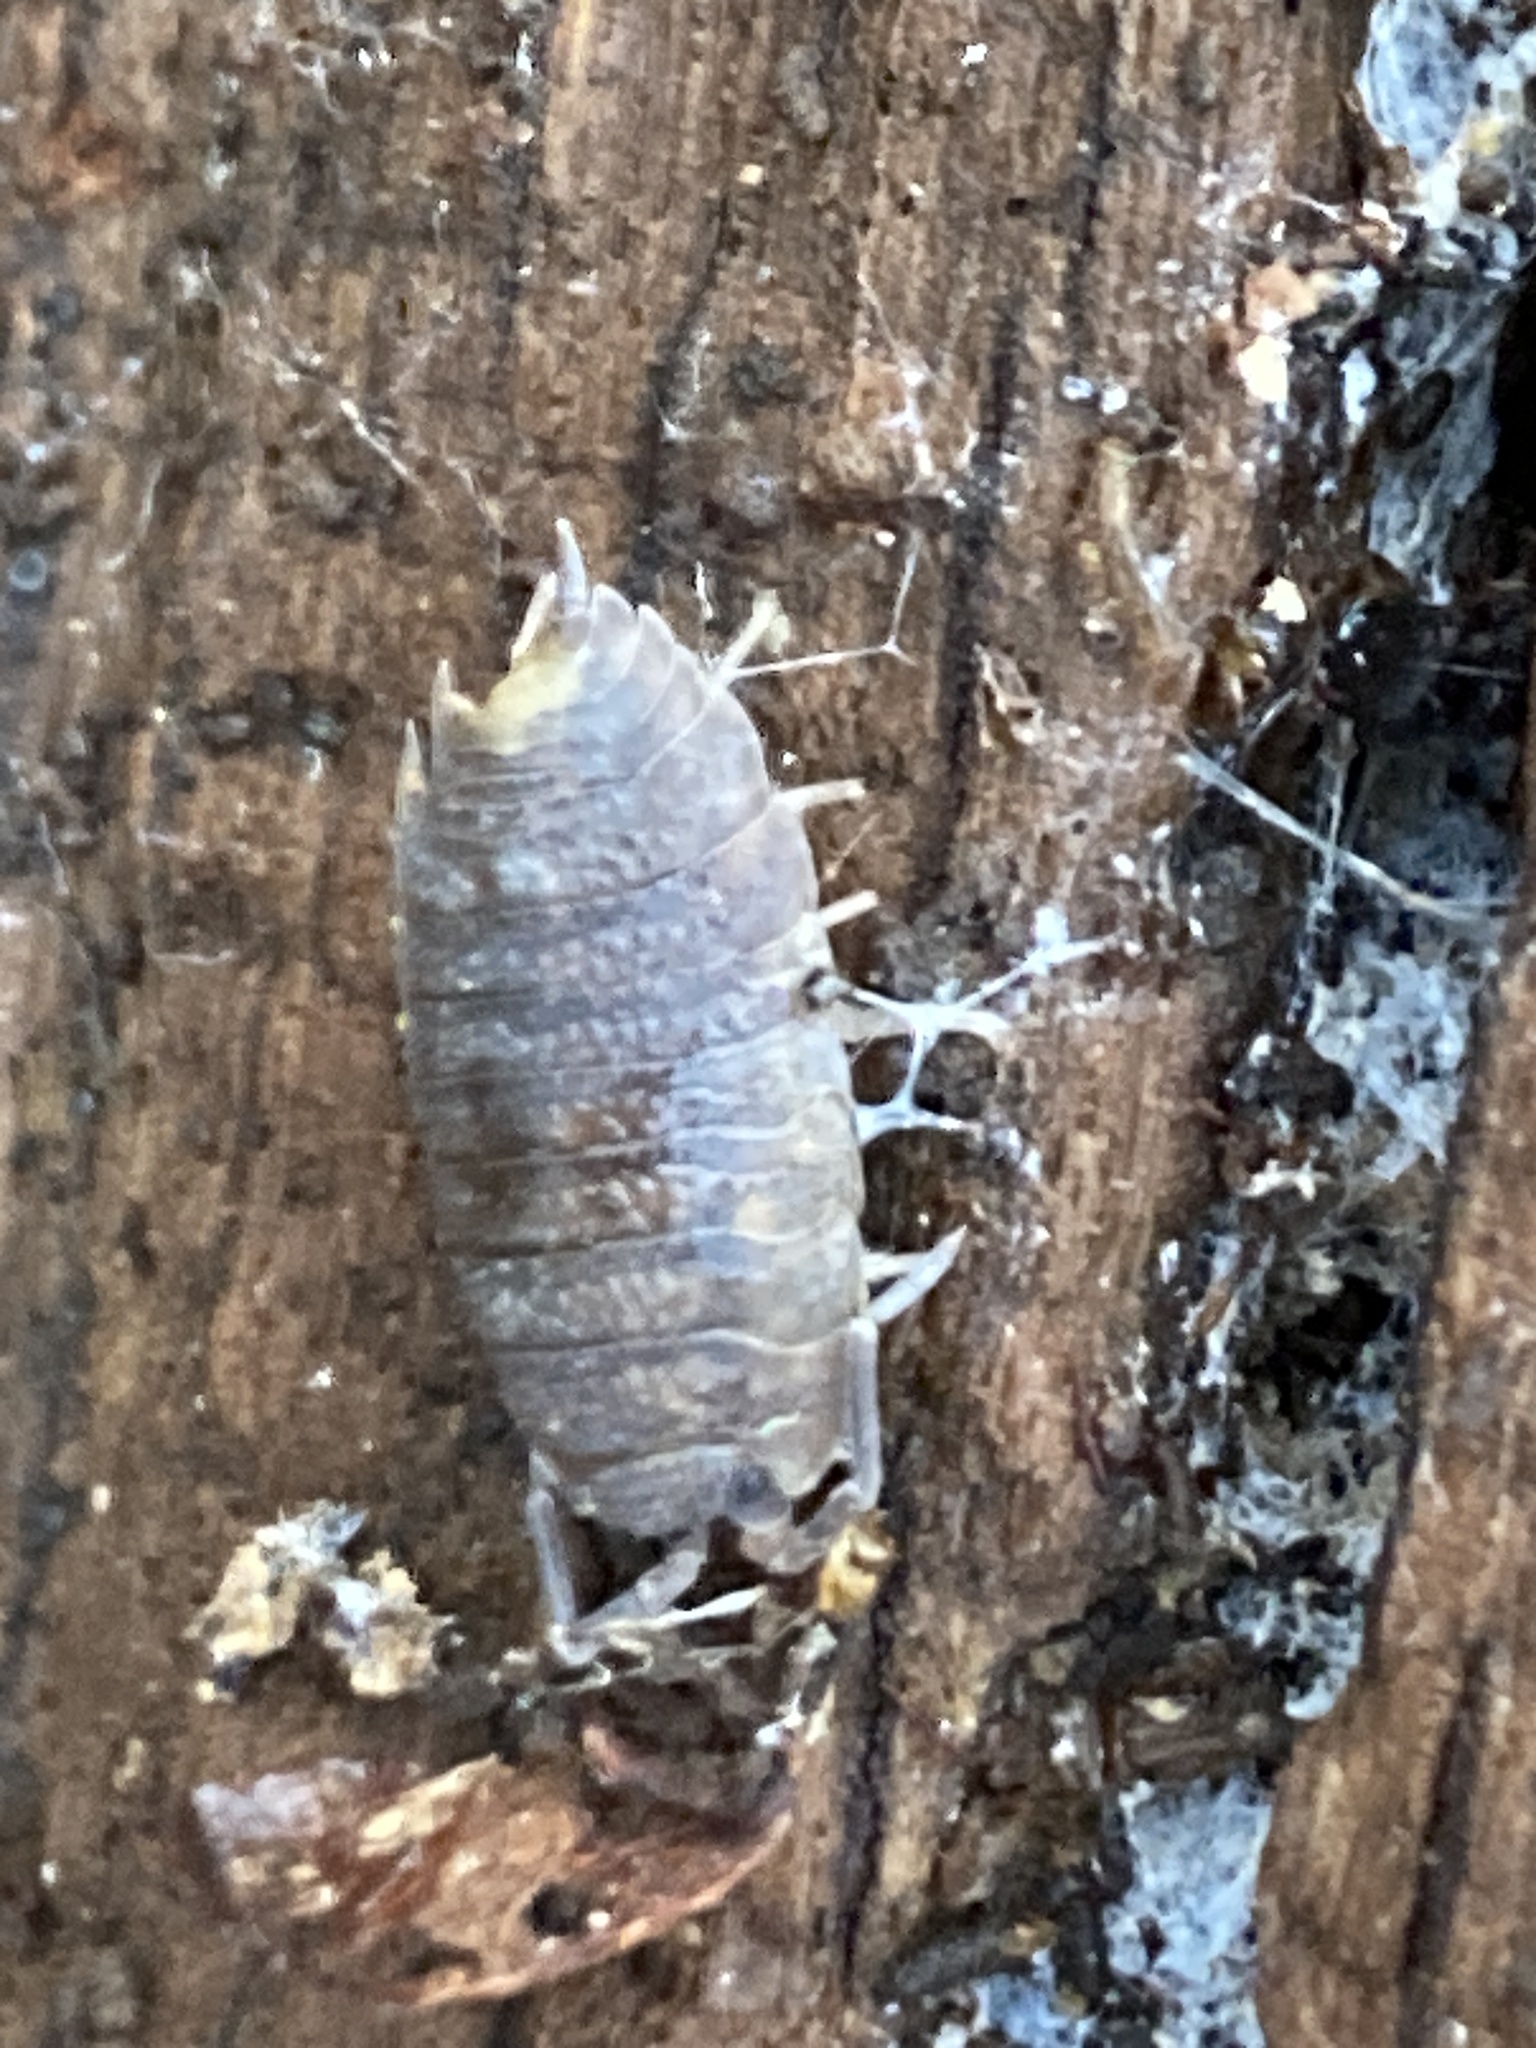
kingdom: Animalia
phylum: Arthropoda
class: Malacostraca
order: Isopoda
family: Porcellionidae
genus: Porcellio
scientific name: Porcellio scaber
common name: Common rough woodlouse
